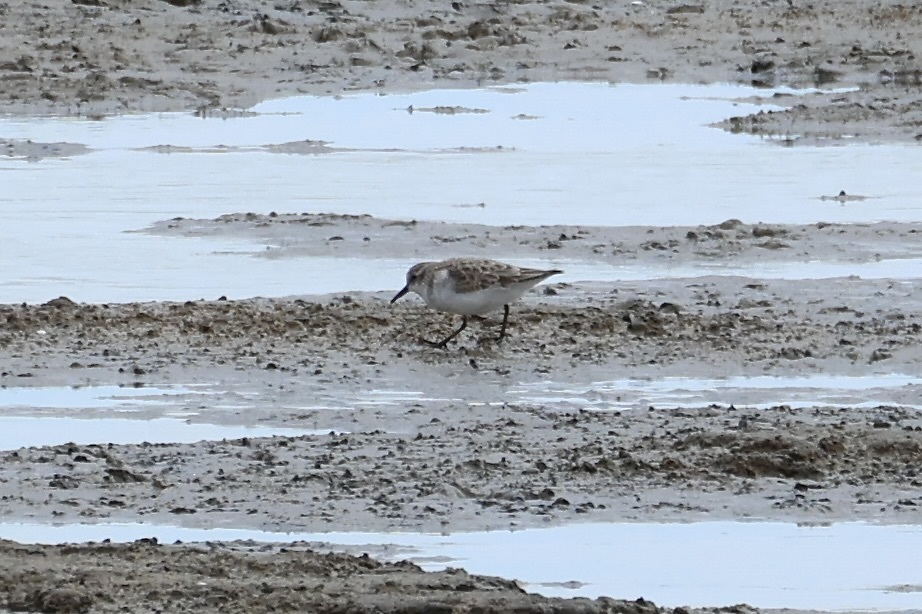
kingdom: Animalia
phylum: Chordata
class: Aves
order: Charadriiformes
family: Scolopacidae
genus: Calidris
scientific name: Calidris minuta
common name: Little stint
